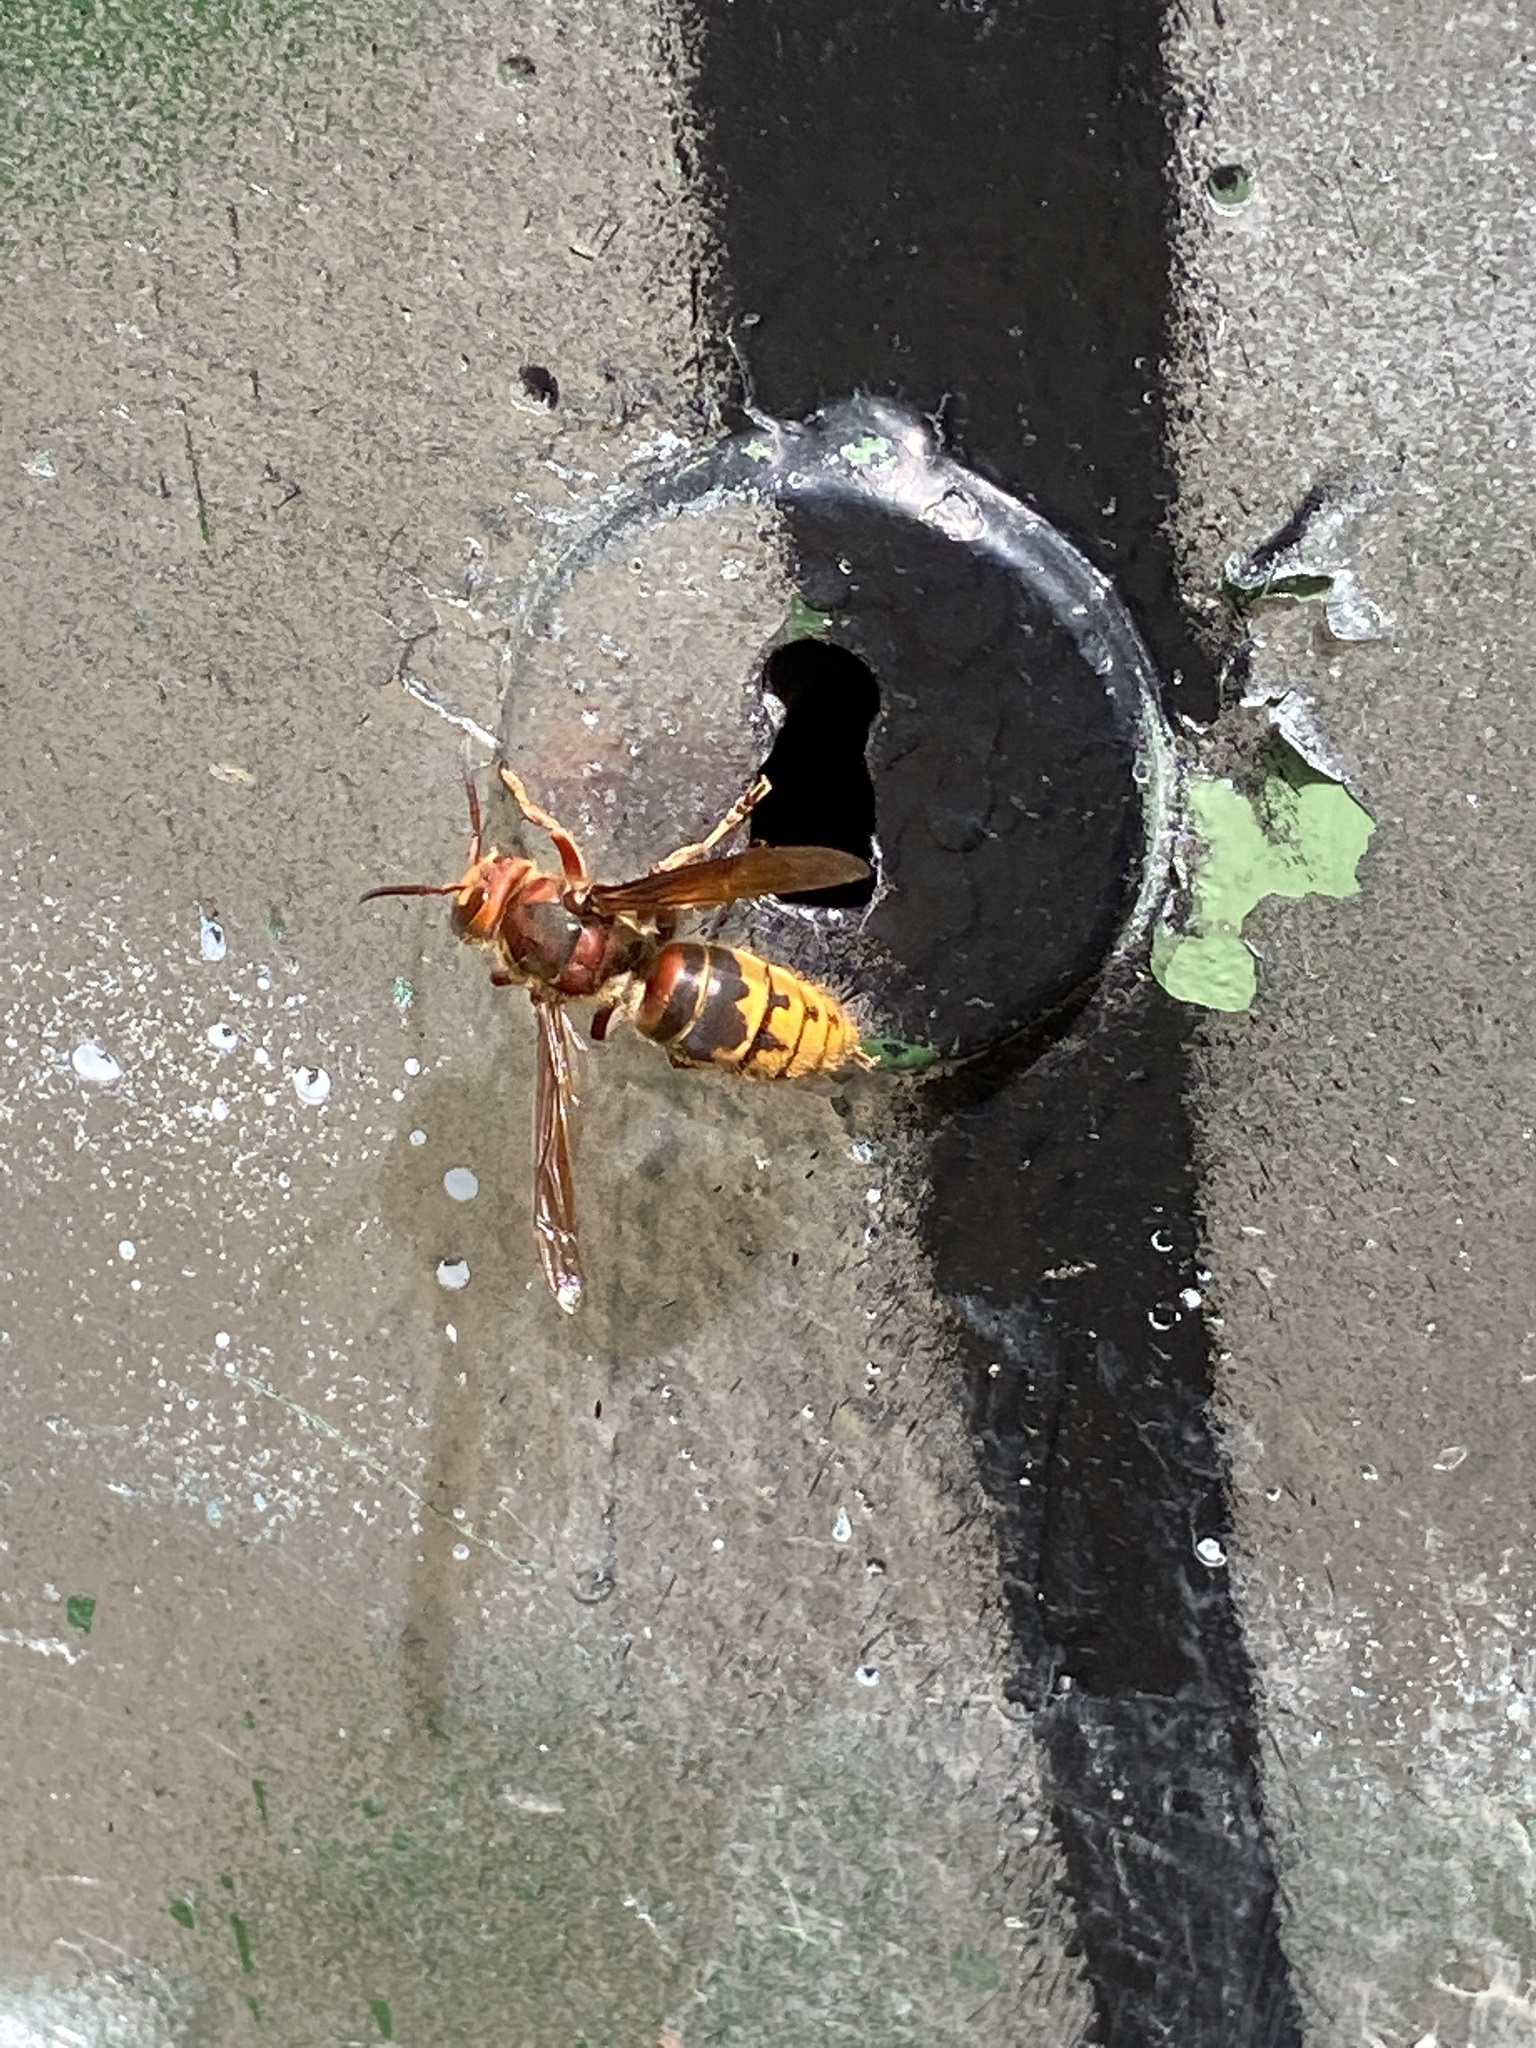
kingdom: Animalia
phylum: Arthropoda
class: Insecta
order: Hymenoptera
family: Vespidae
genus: Vespa
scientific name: Vespa crabro
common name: Hornet
